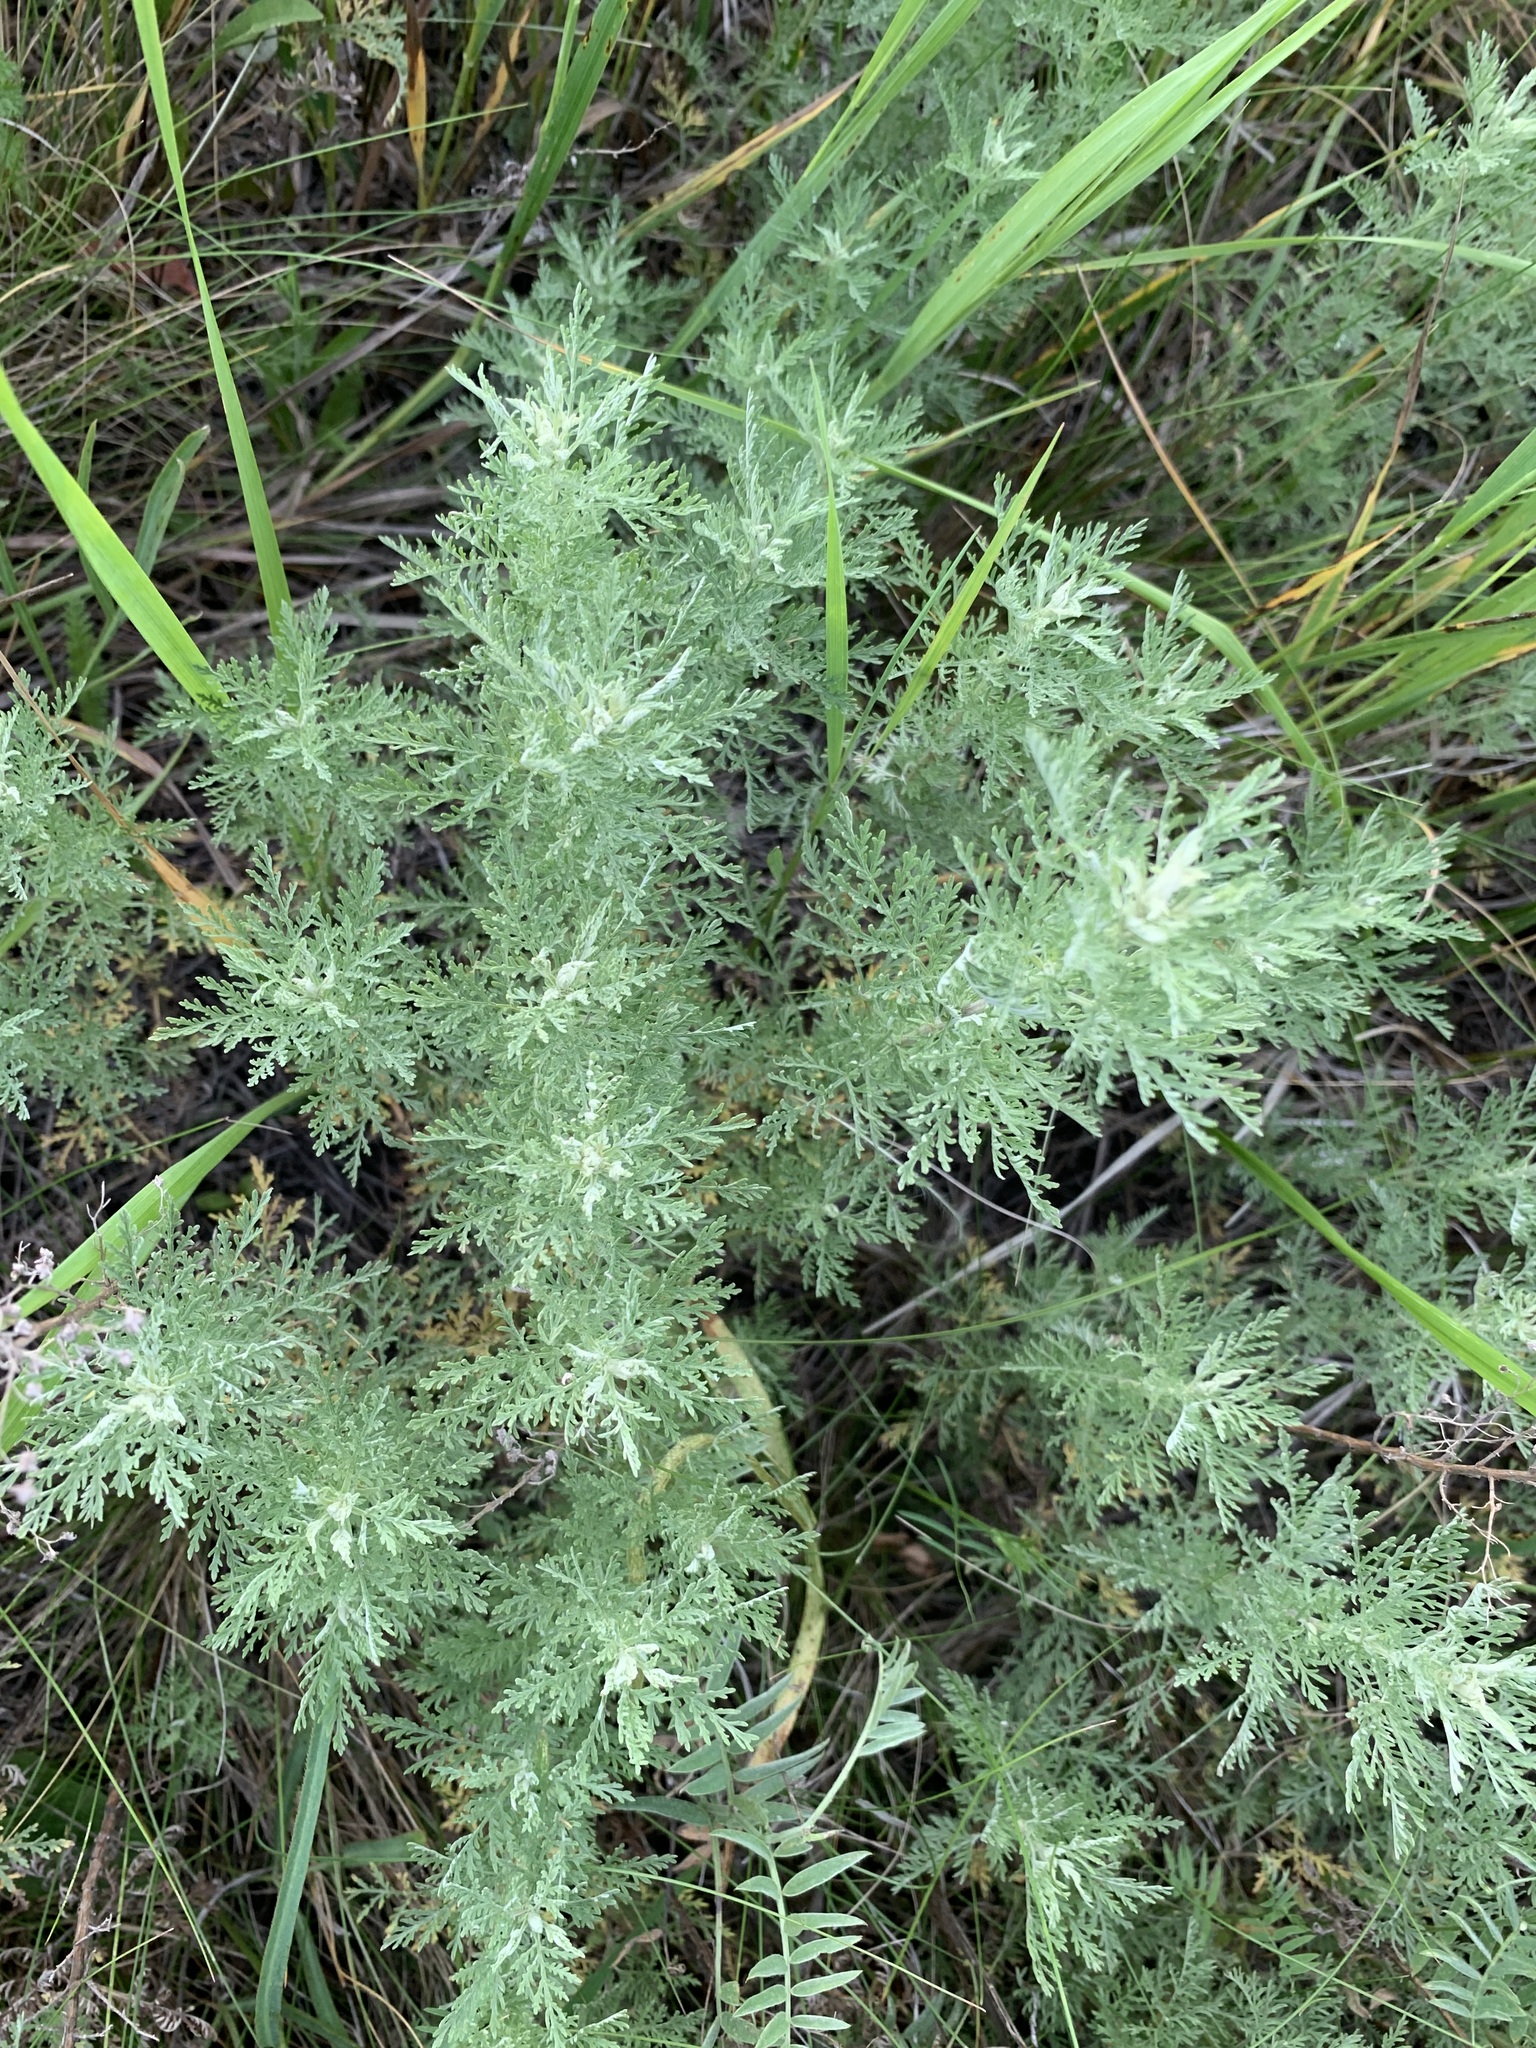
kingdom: Plantae
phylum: Tracheophyta
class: Magnoliopsida
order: Asterales
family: Asteraceae
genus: Artemisia
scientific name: Artemisia macrantha
